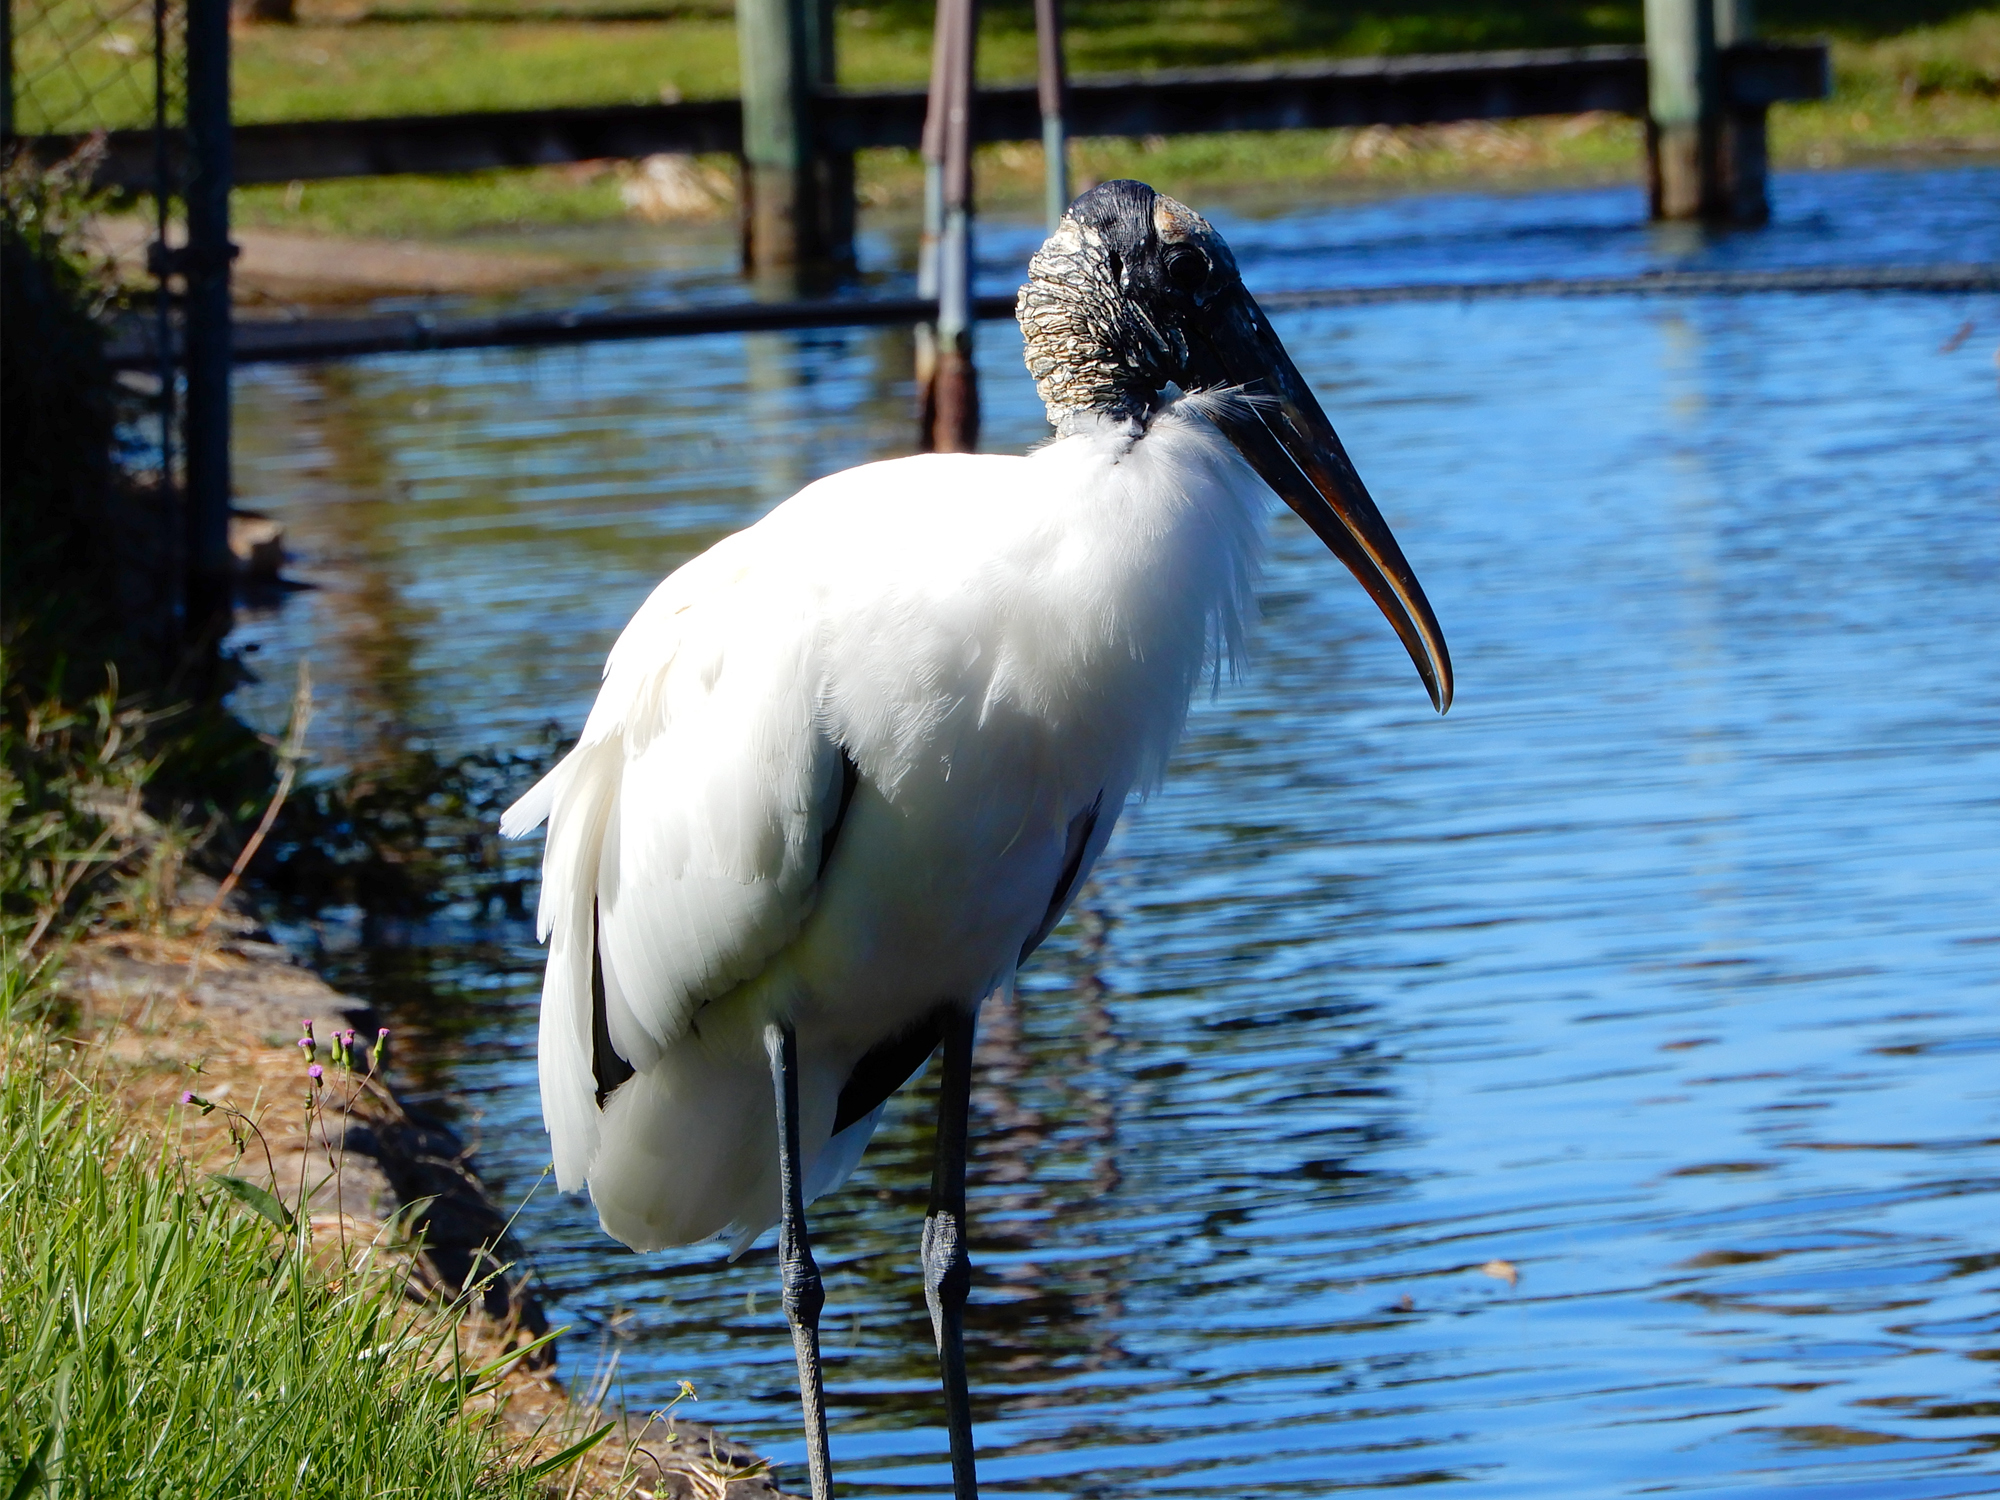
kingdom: Animalia
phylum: Chordata
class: Aves
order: Ciconiiformes
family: Ciconiidae
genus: Mycteria
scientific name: Mycteria americana
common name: Wood stork
